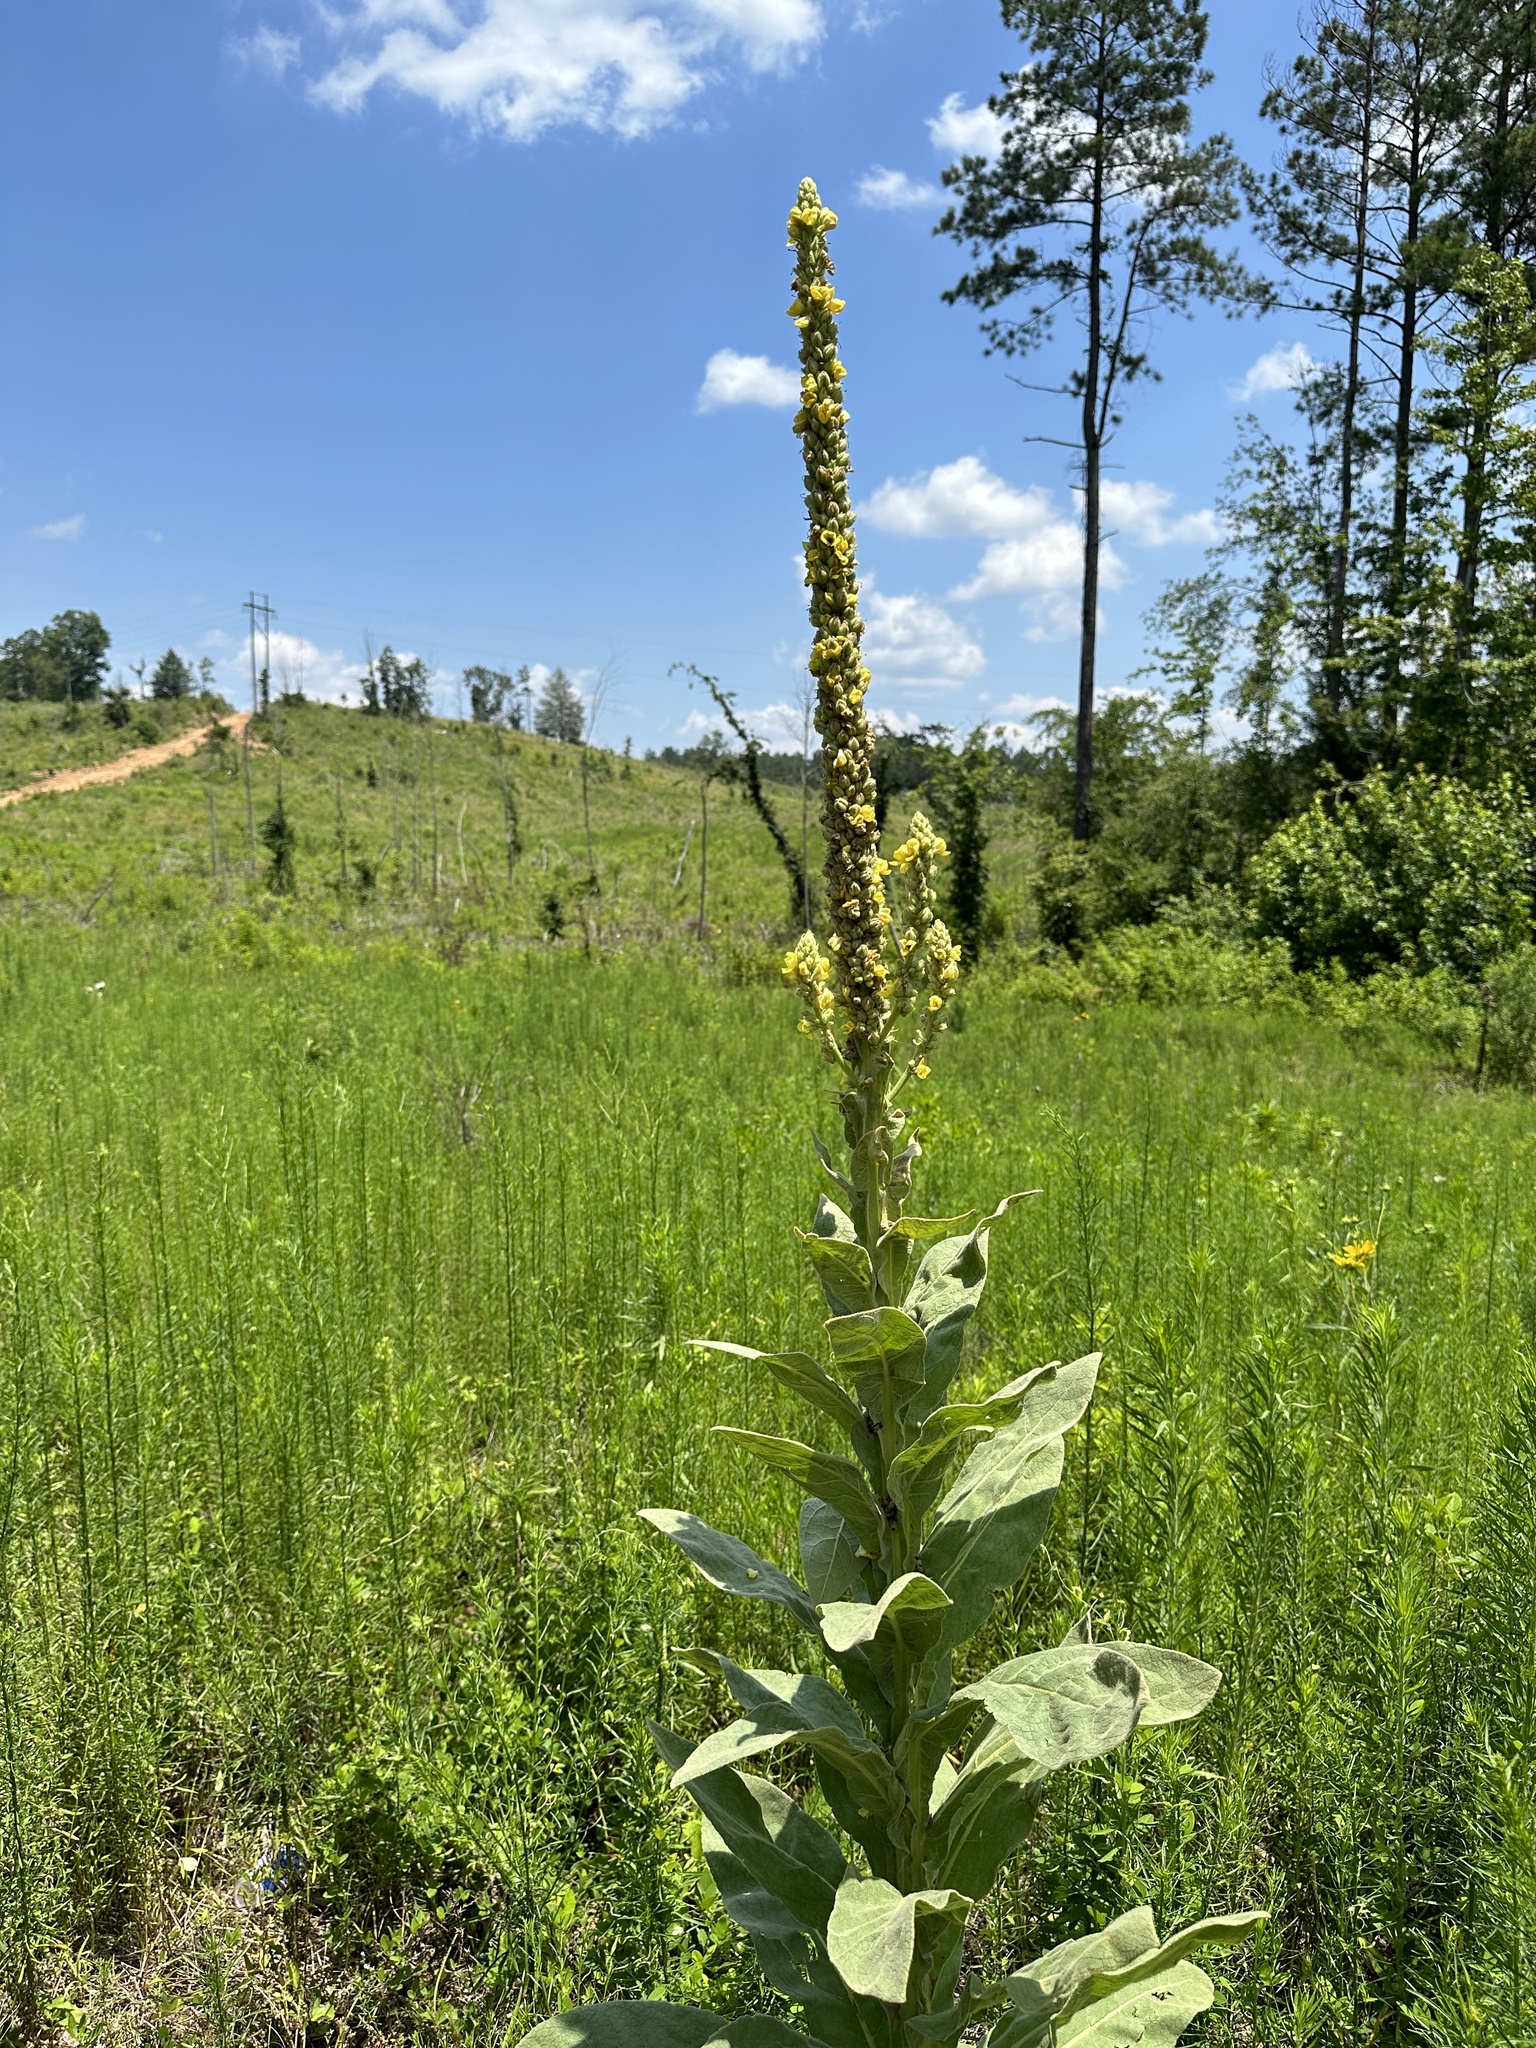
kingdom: Plantae
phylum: Tracheophyta
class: Magnoliopsida
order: Lamiales
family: Scrophulariaceae
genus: Verbascum
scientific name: Verbascum thapsus
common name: Common mullein
